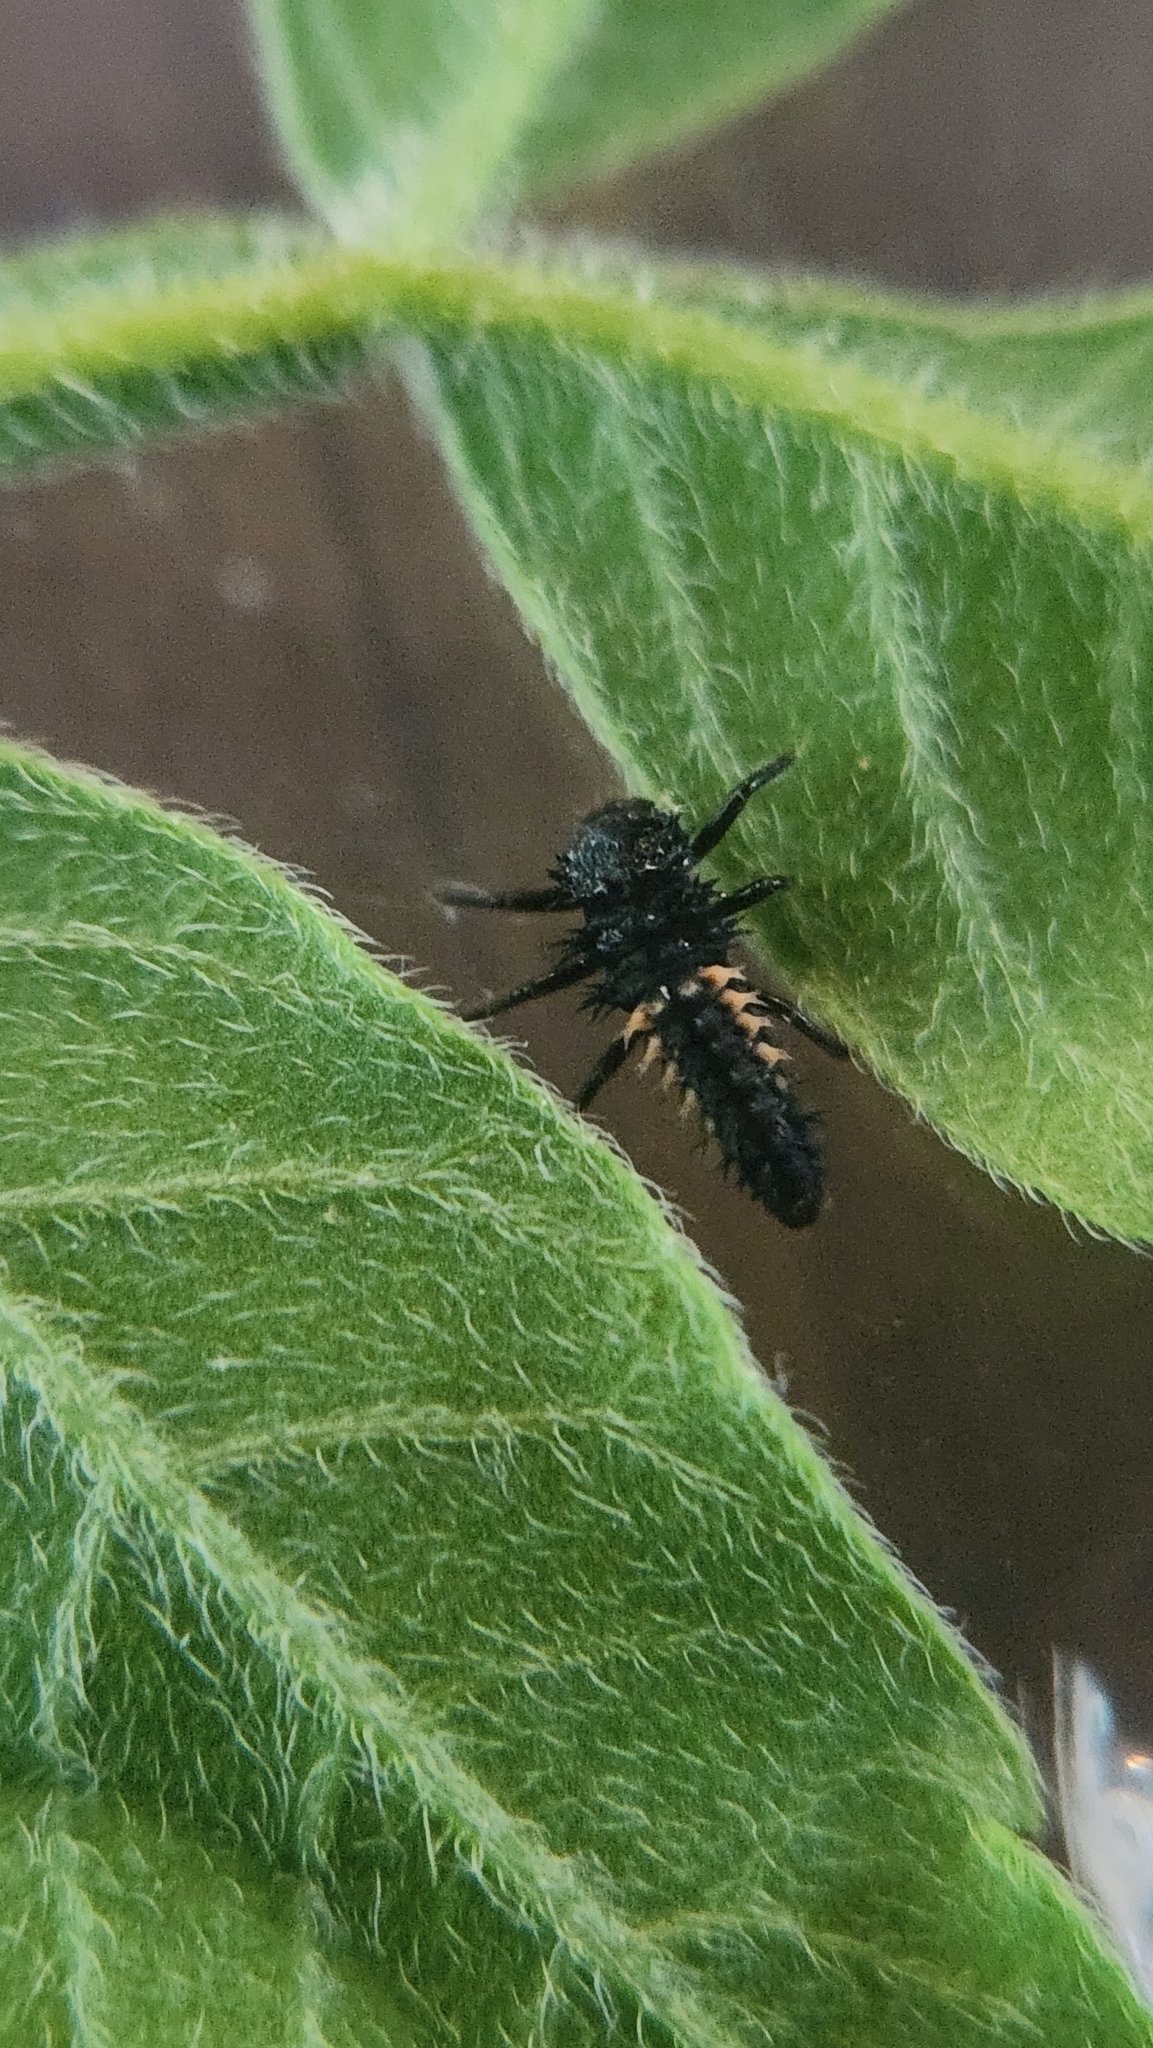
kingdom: Animalia
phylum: Arthropoda
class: Insecta
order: Coleoptera
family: Coccinellidae
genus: Harmonia
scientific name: Harmonia axyridis
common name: Harlequin ladybird
